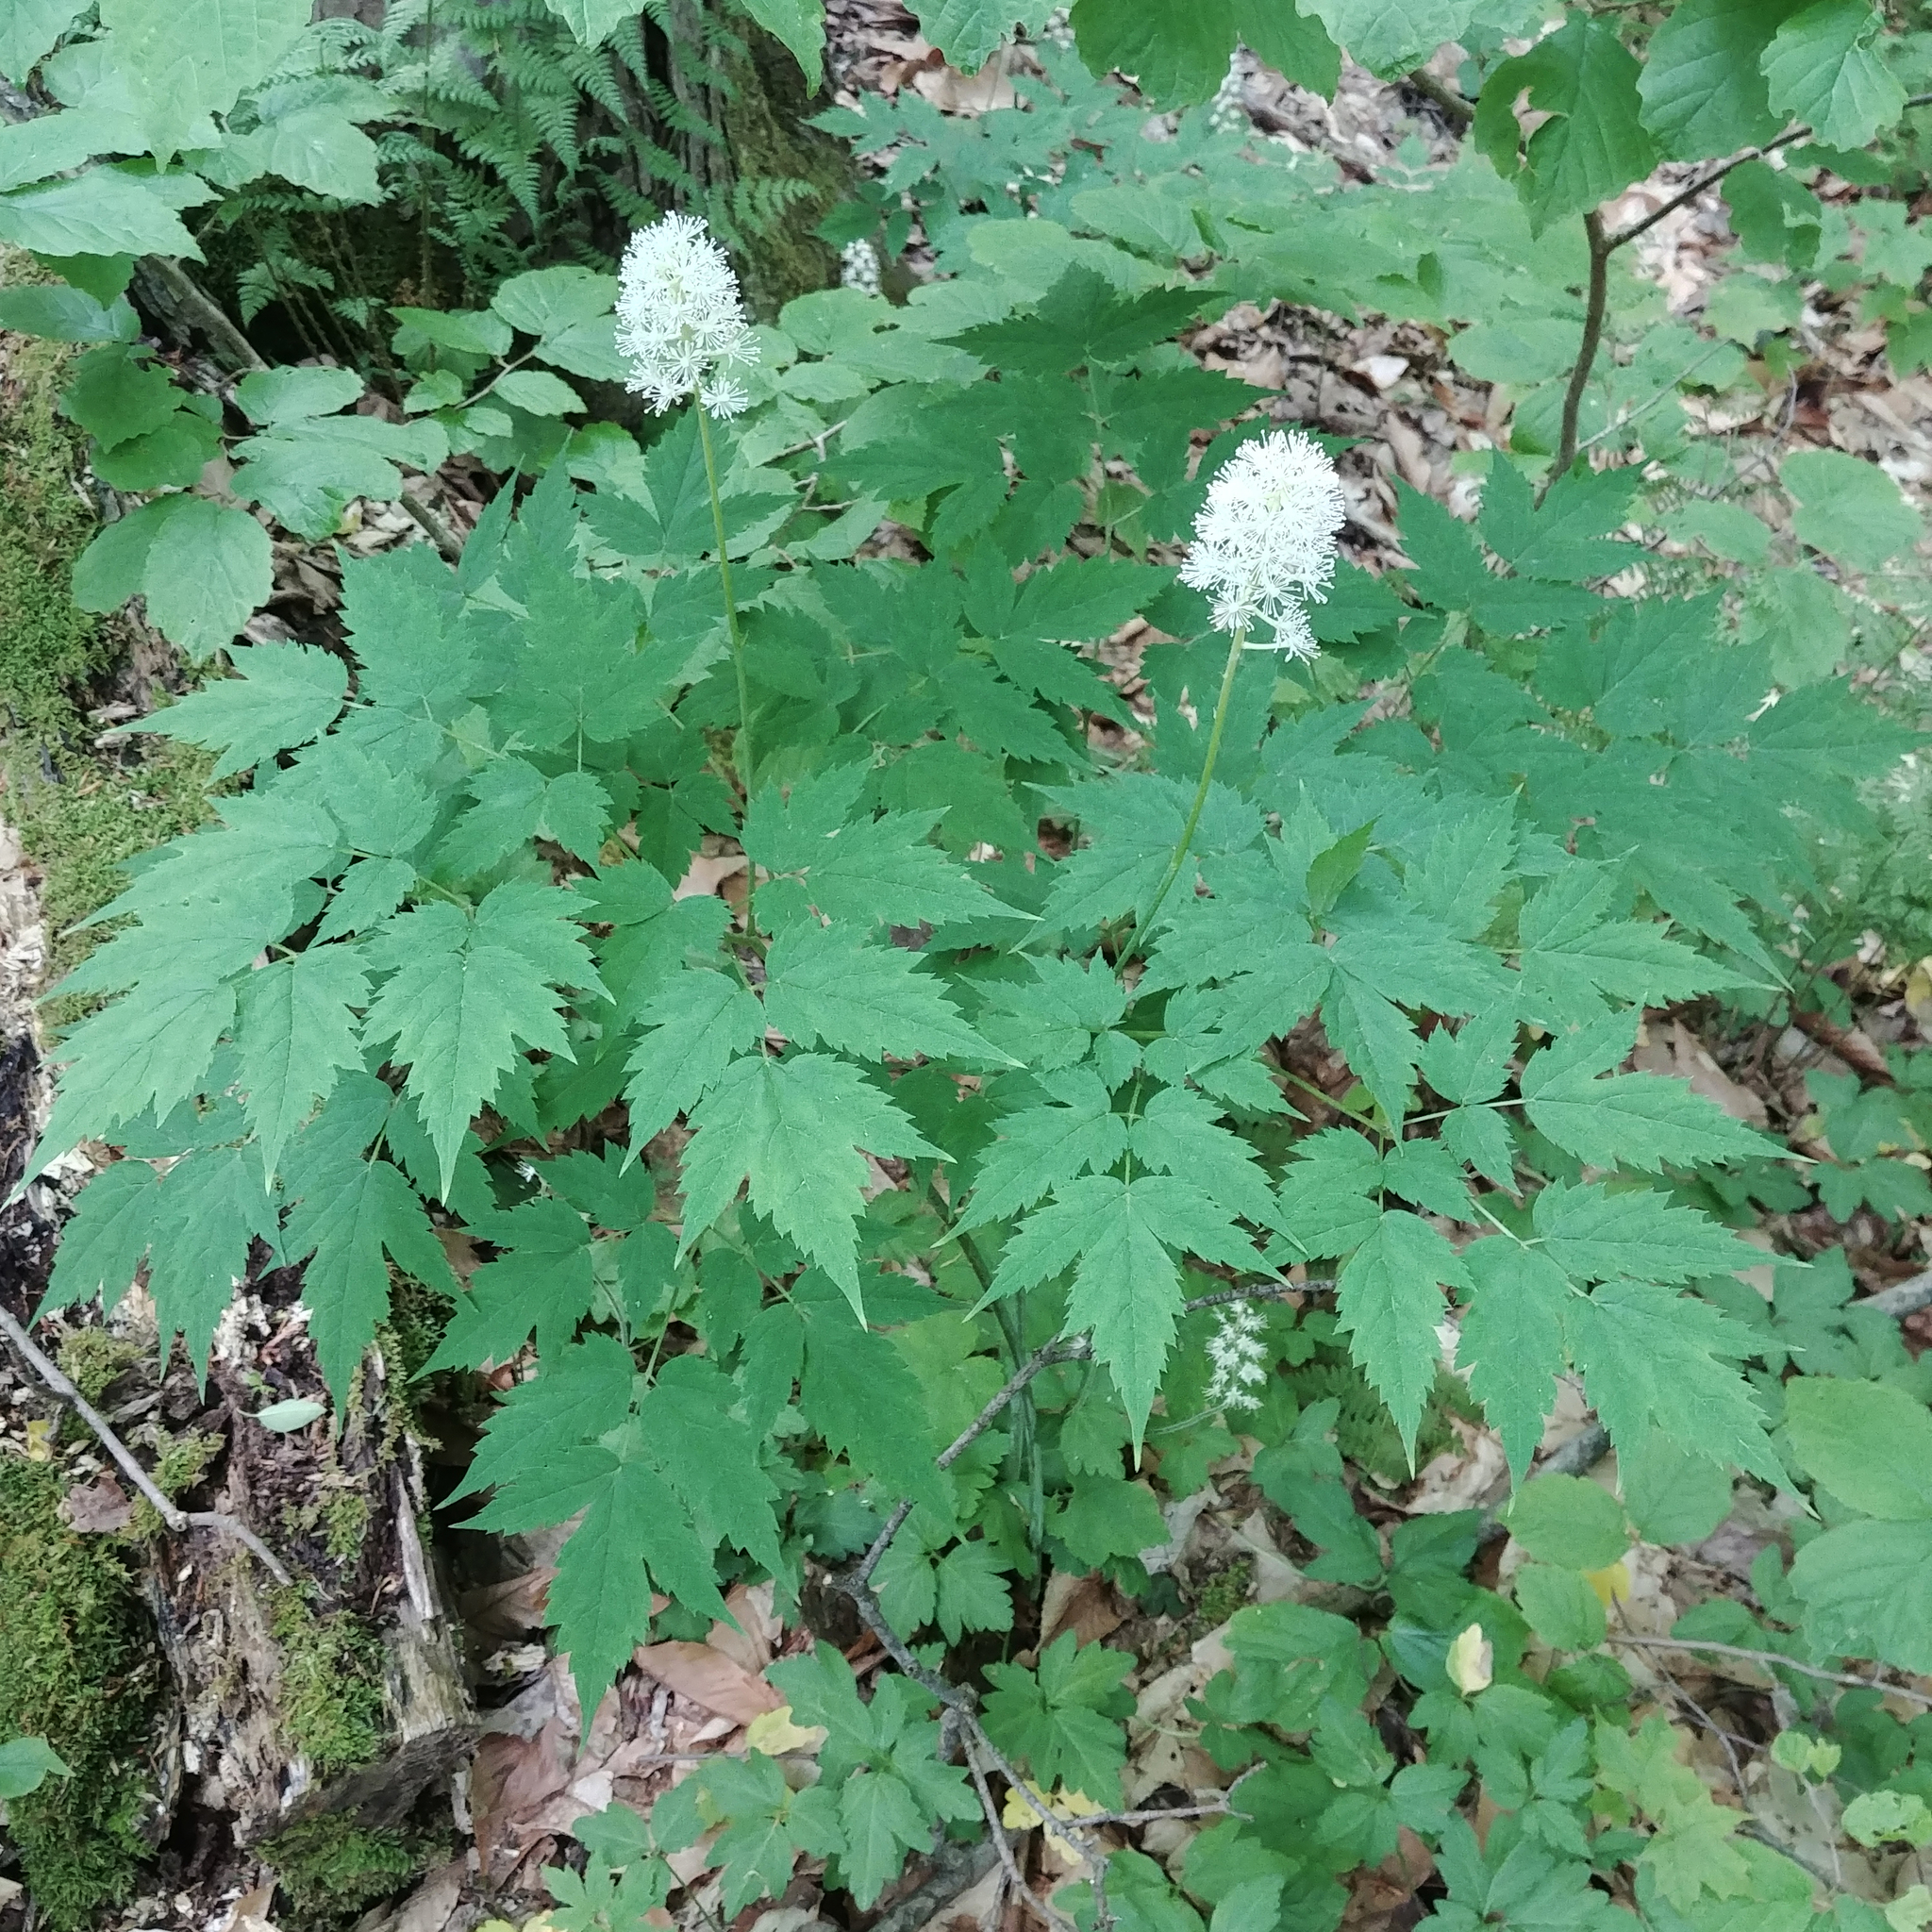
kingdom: Plantae
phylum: Tracheophyta
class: Magnoliopsida
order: Ranunculales
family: Ranunculaceae
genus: Actaea
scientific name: Actaea pachypoda
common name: Doll's-eyes
